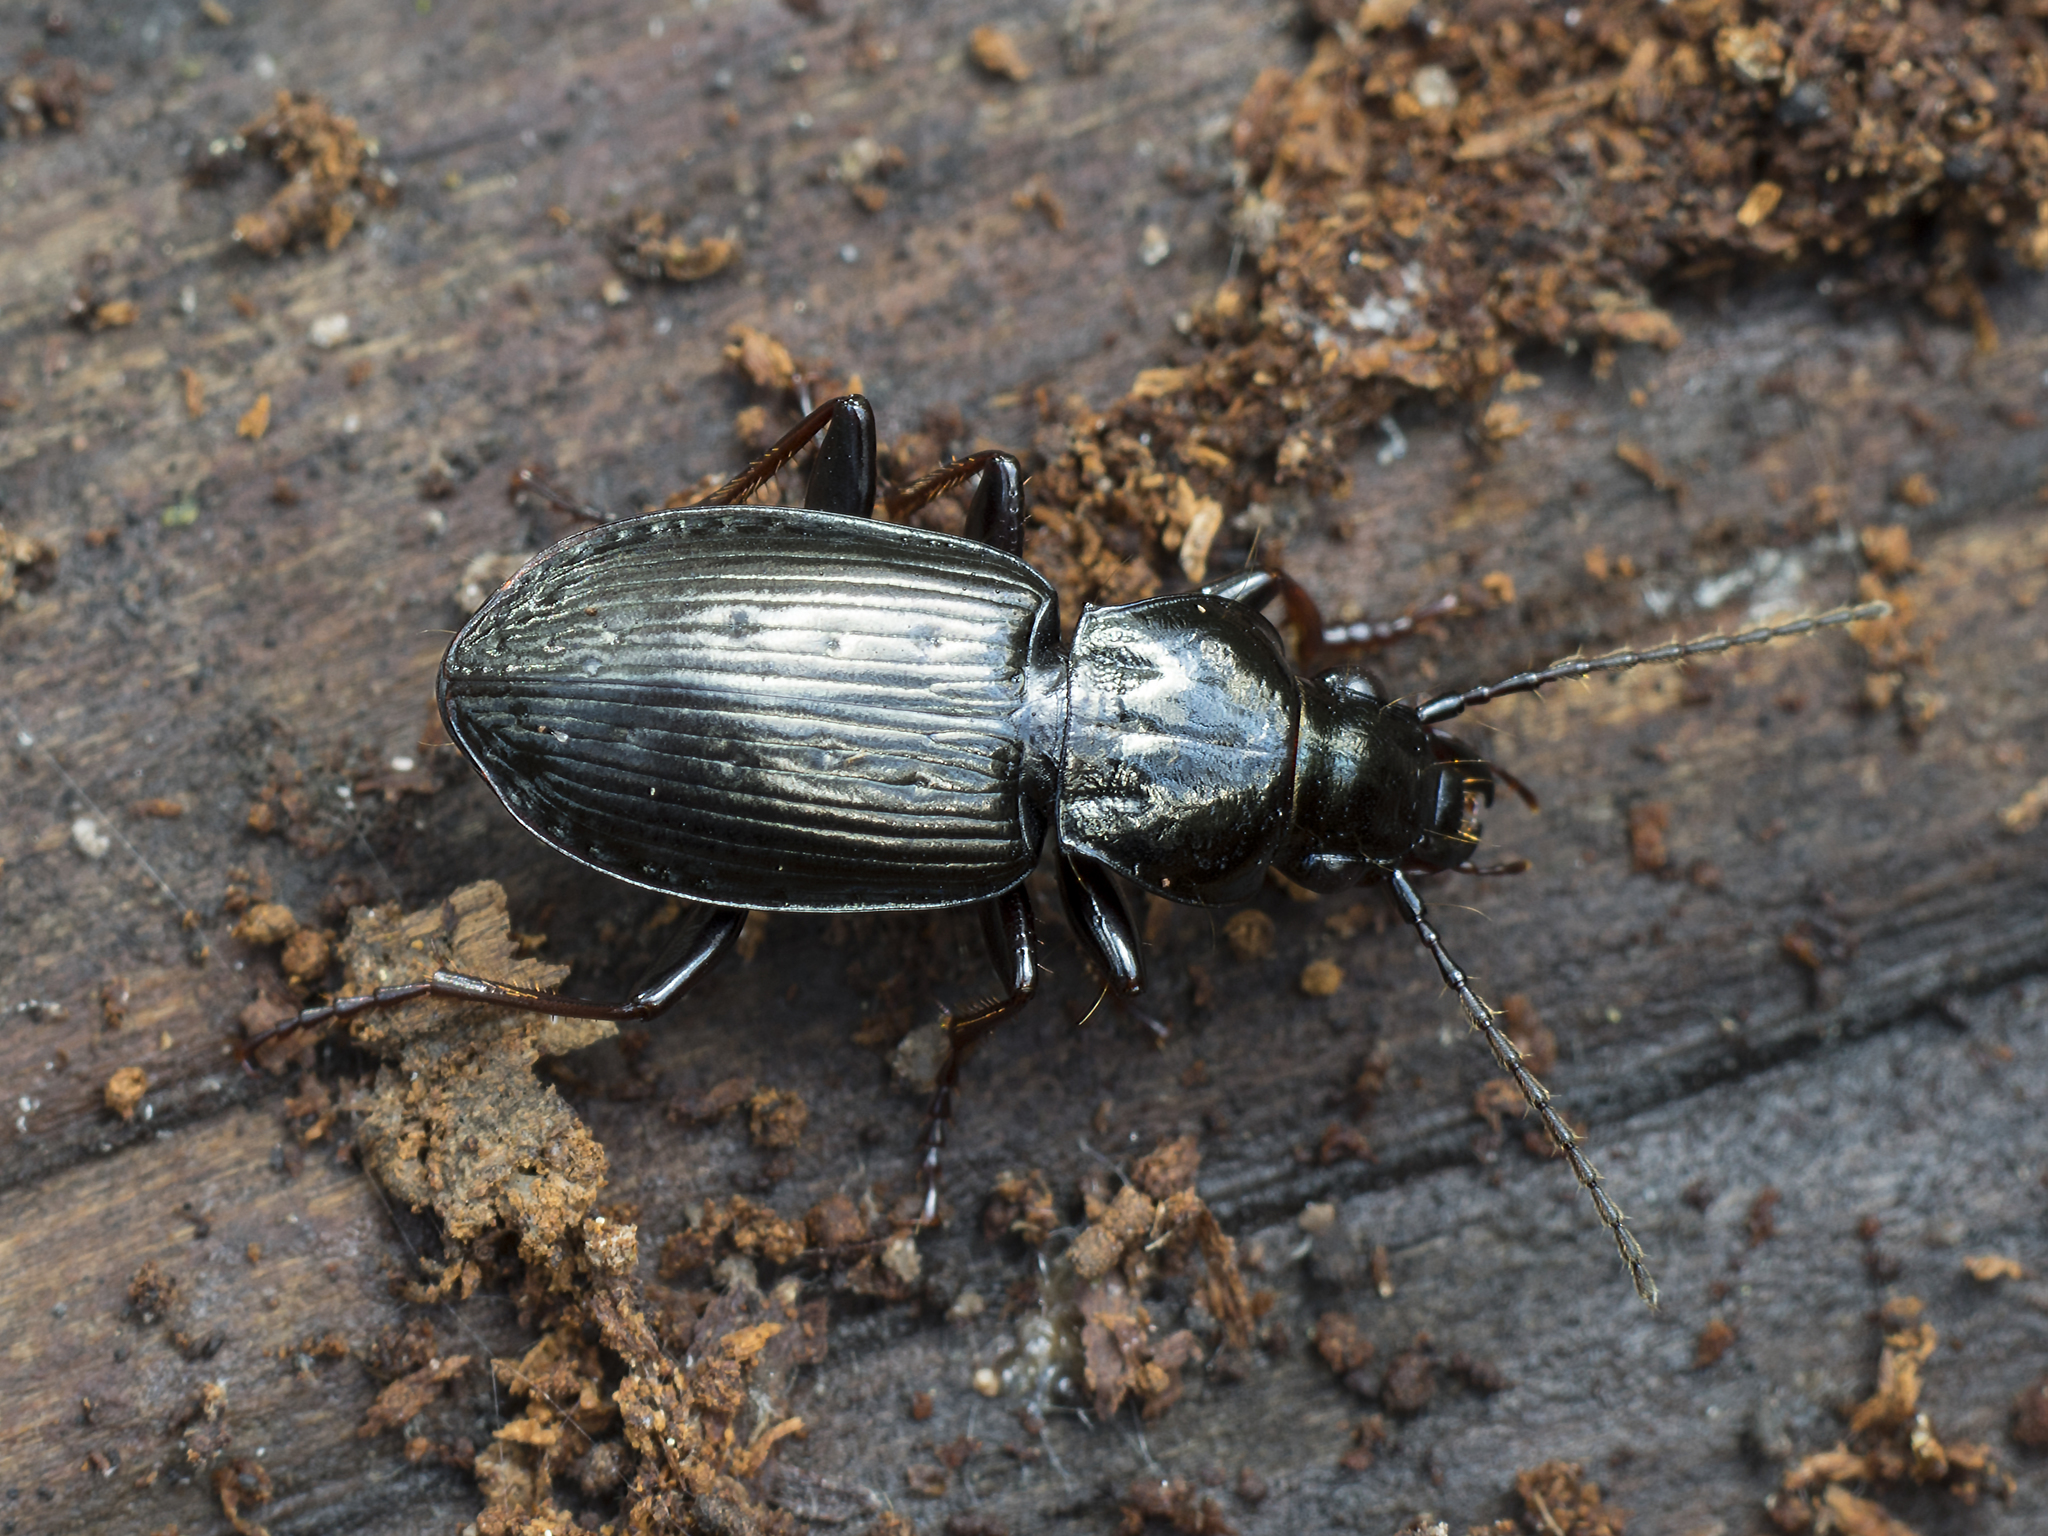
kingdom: Animalia
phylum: Arthropoda
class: Insecta
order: Coleoptera
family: Carabidae
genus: Pterostichus
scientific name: Pterostichus oblongopunctatus
